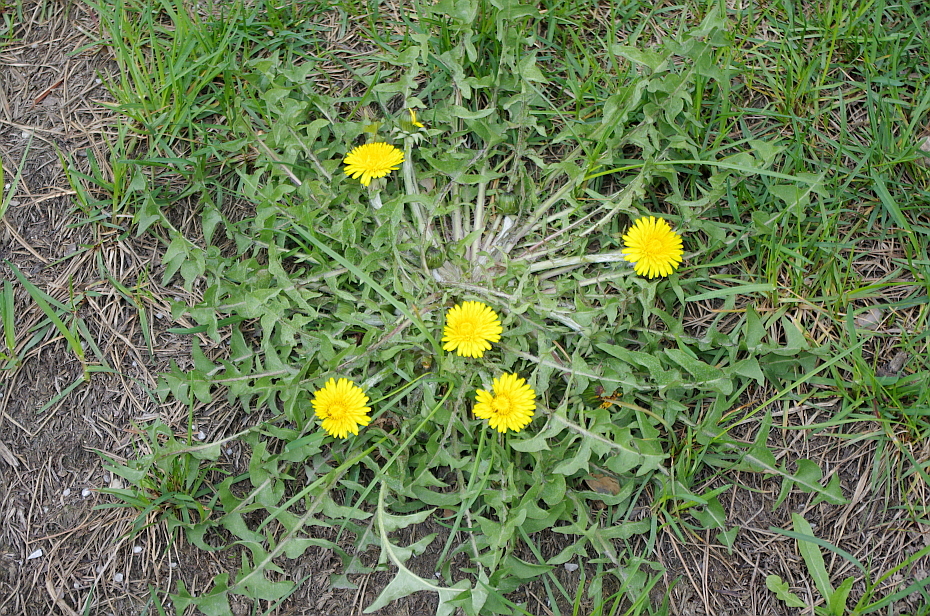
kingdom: Plantae
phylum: Tracheophyta
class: Magnoliopsida
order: Asterales
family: Asteraceae
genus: Taraxacum
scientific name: Taraxacum officinale
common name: Common dandelion
